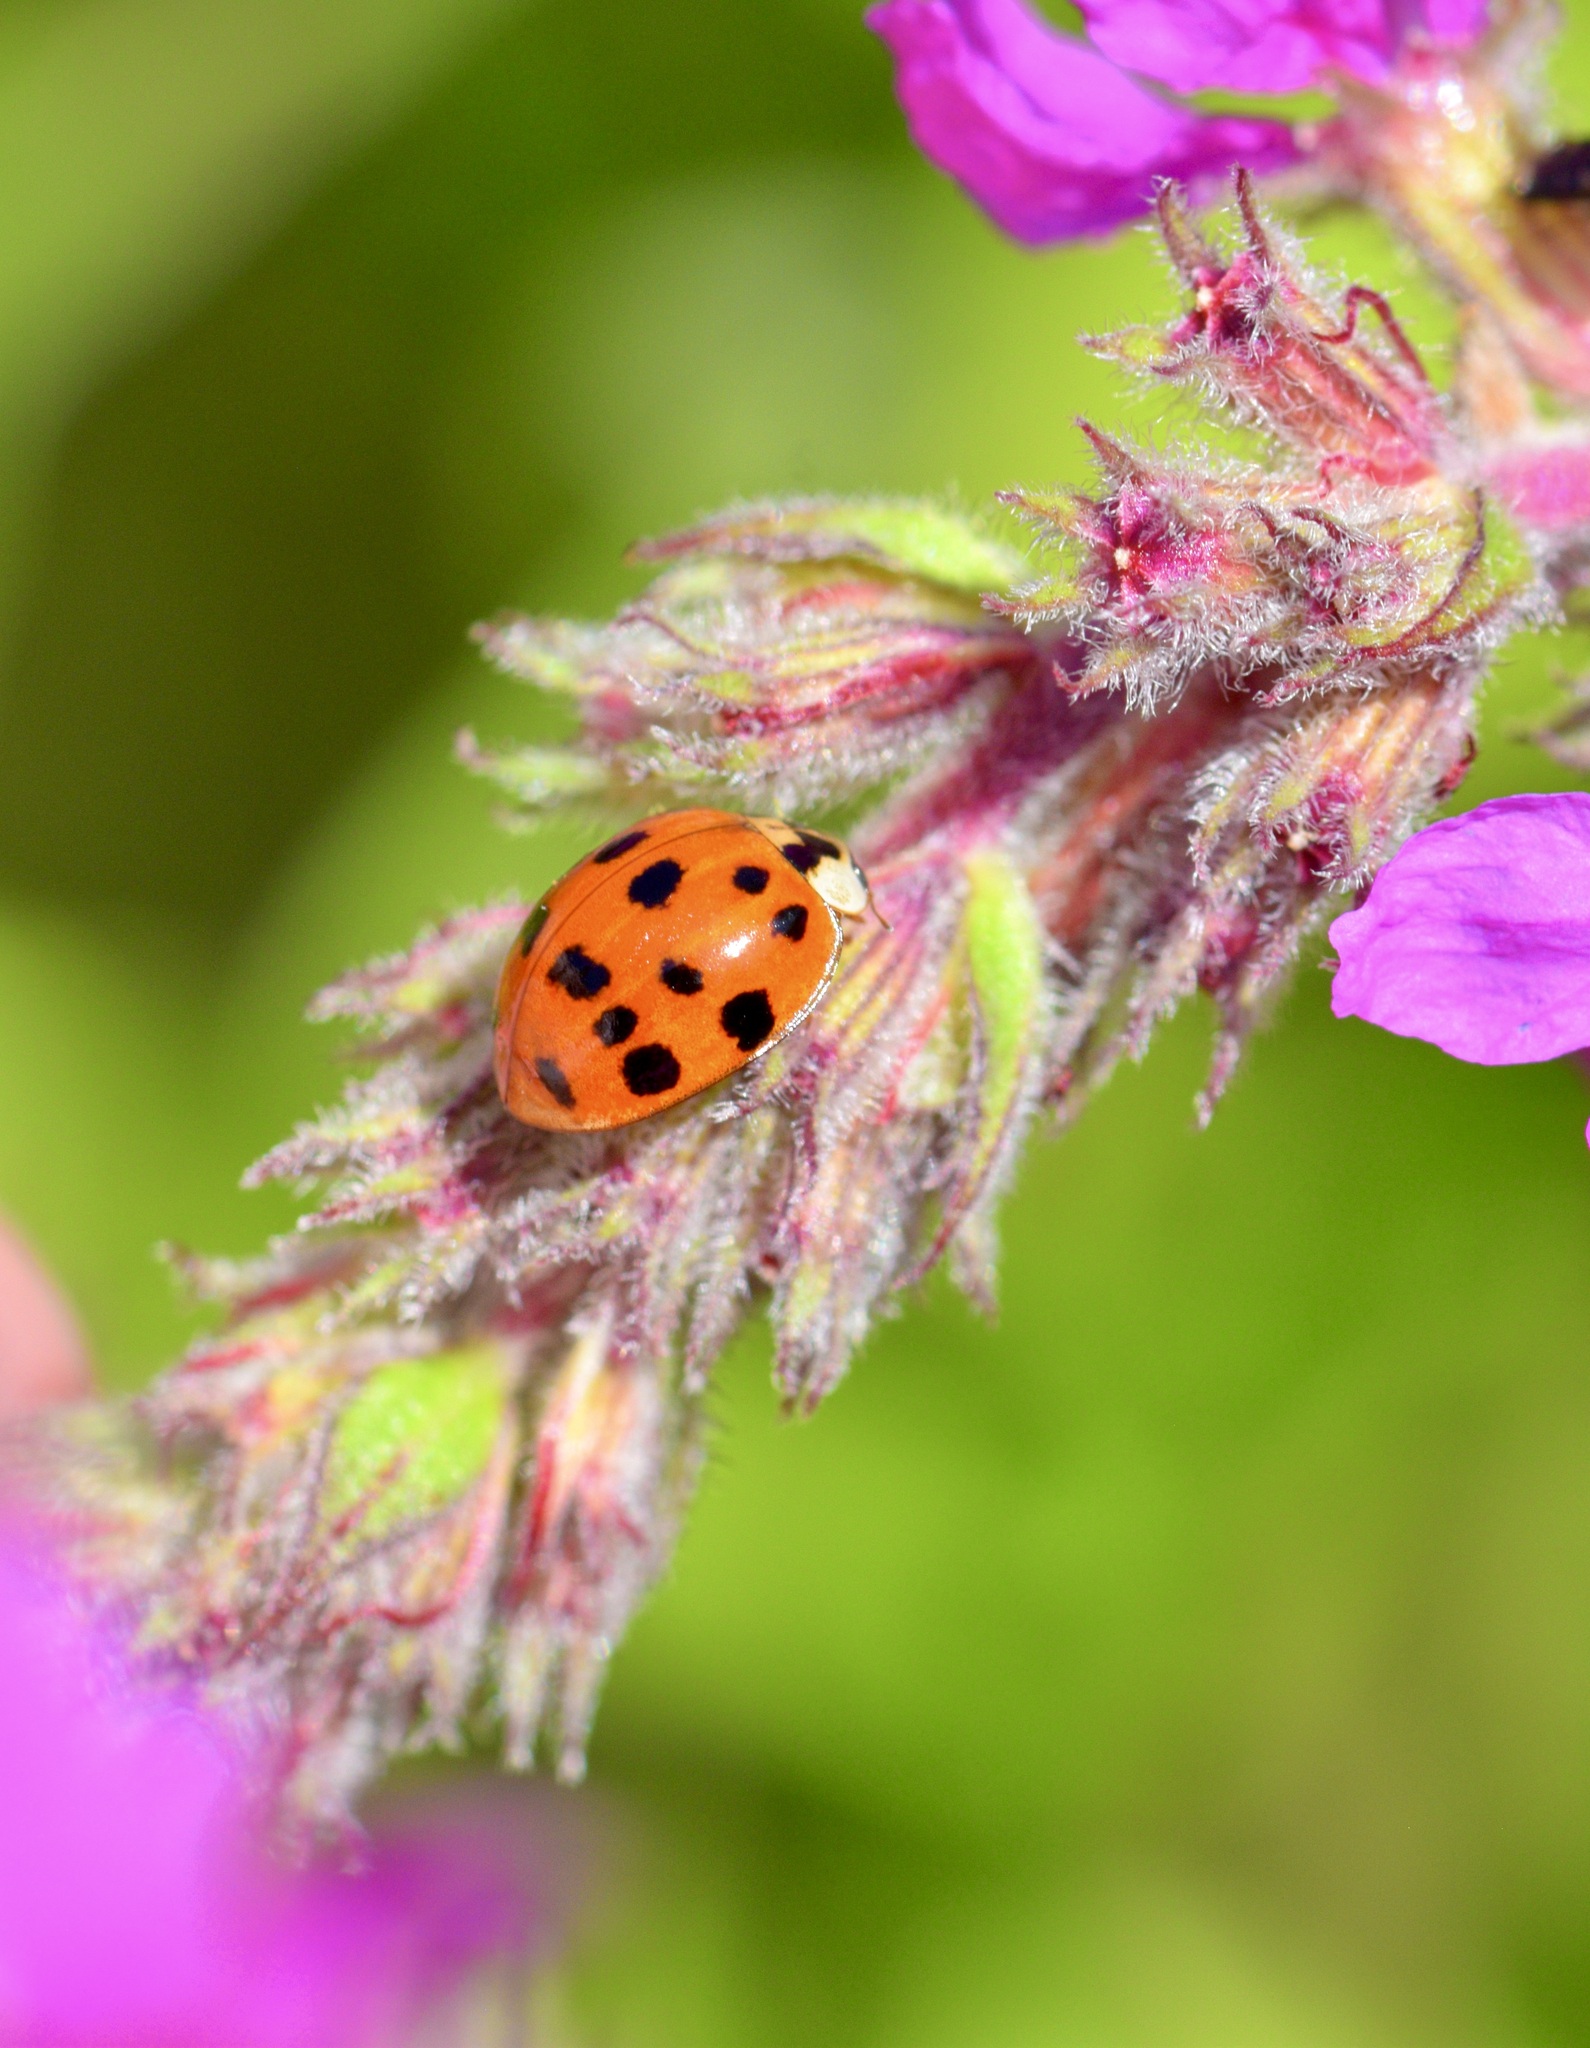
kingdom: Animalia
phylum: Arthropoda
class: Insecta
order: Coleoptera
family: Coccinellidae
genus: Harmonia
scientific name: Harmonia axyridis
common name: Harlequin ladybird
